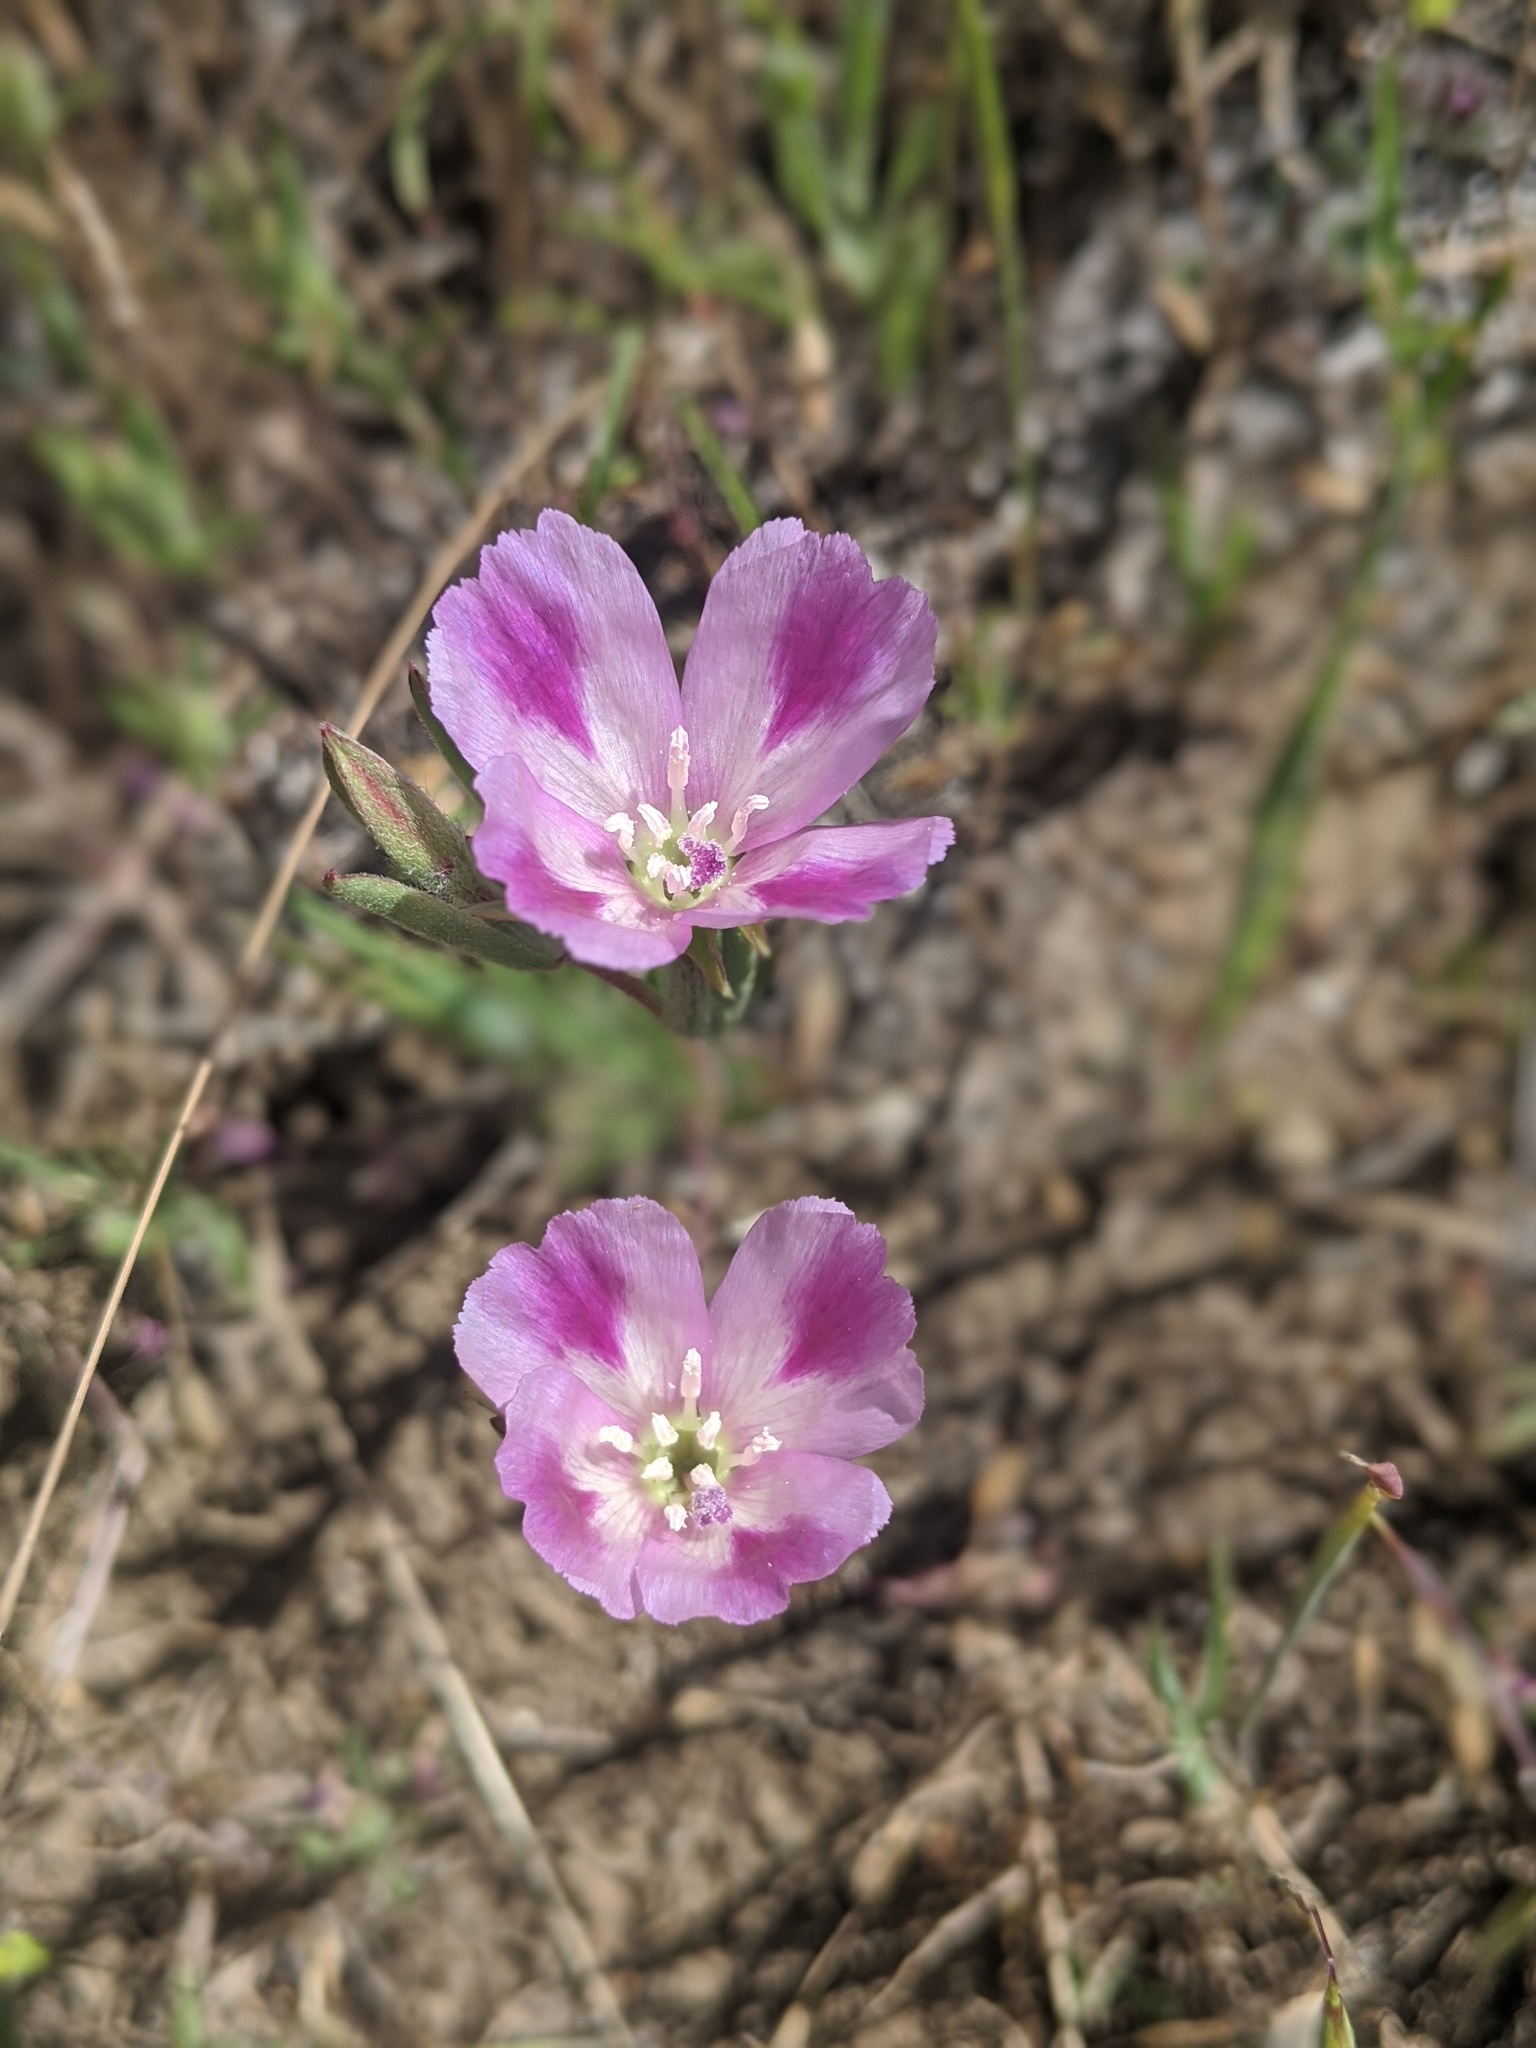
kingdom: Plantae
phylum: Tracheophyta
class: Magnoliopsida
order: Myrtales
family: Onagraceae
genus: Clarkia
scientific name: Clarkia purpurea
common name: Purple clarkia
